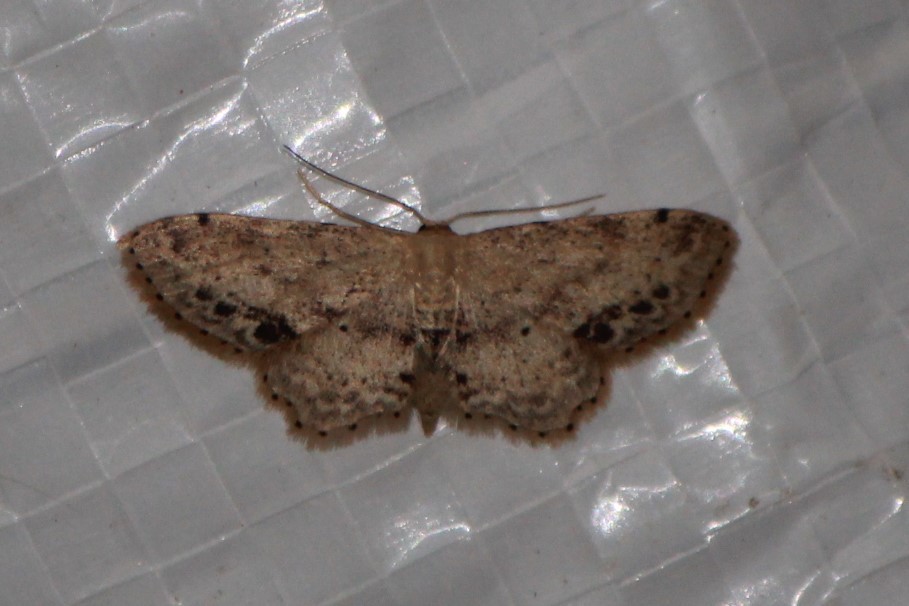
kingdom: Animalia
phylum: Arthropoda
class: Insecta
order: Lepidoptera
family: Geometridae
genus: Idaea
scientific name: Idaea dimidiata
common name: Single-dotted wave
